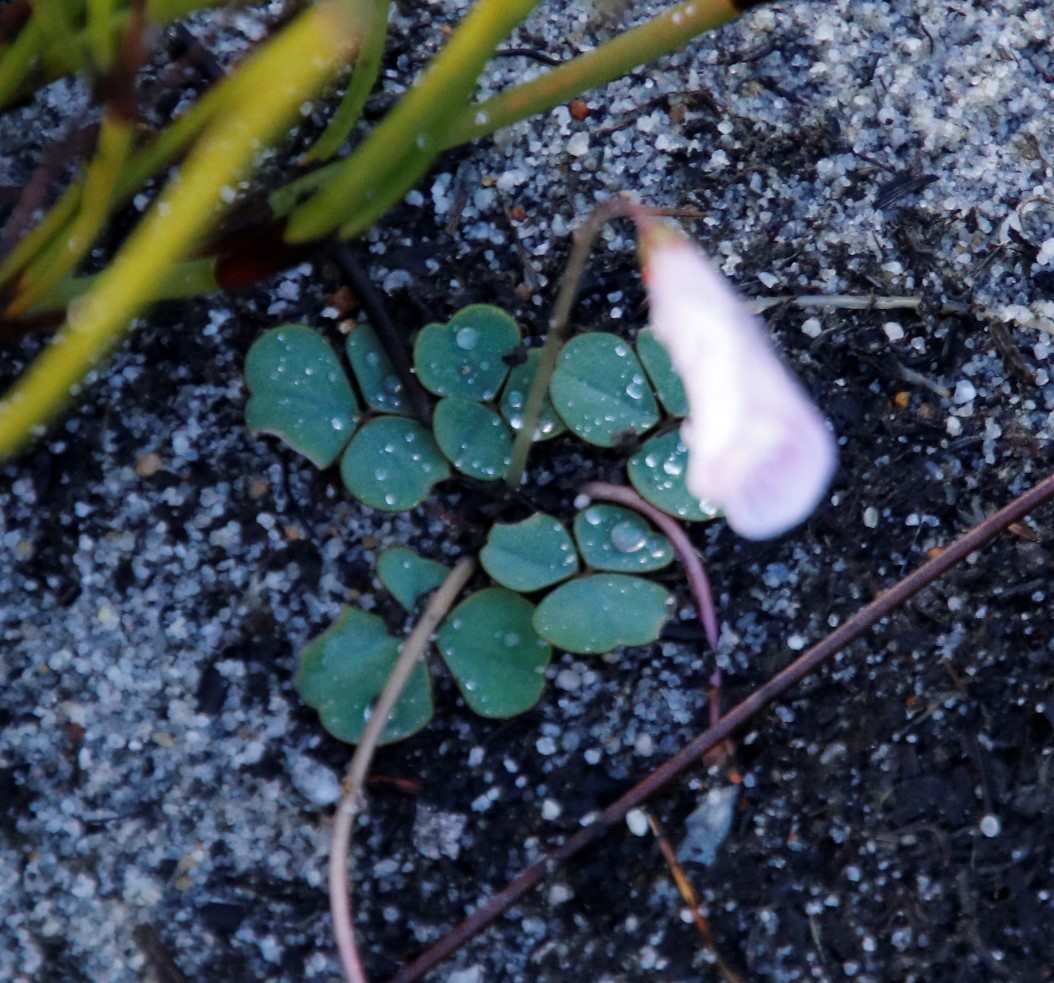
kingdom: Plantae
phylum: Tracheophyta
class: Magnoliopsida
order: Oxalidales
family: Oxalidaceae
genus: Oxalis
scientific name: Oxalis commutata
